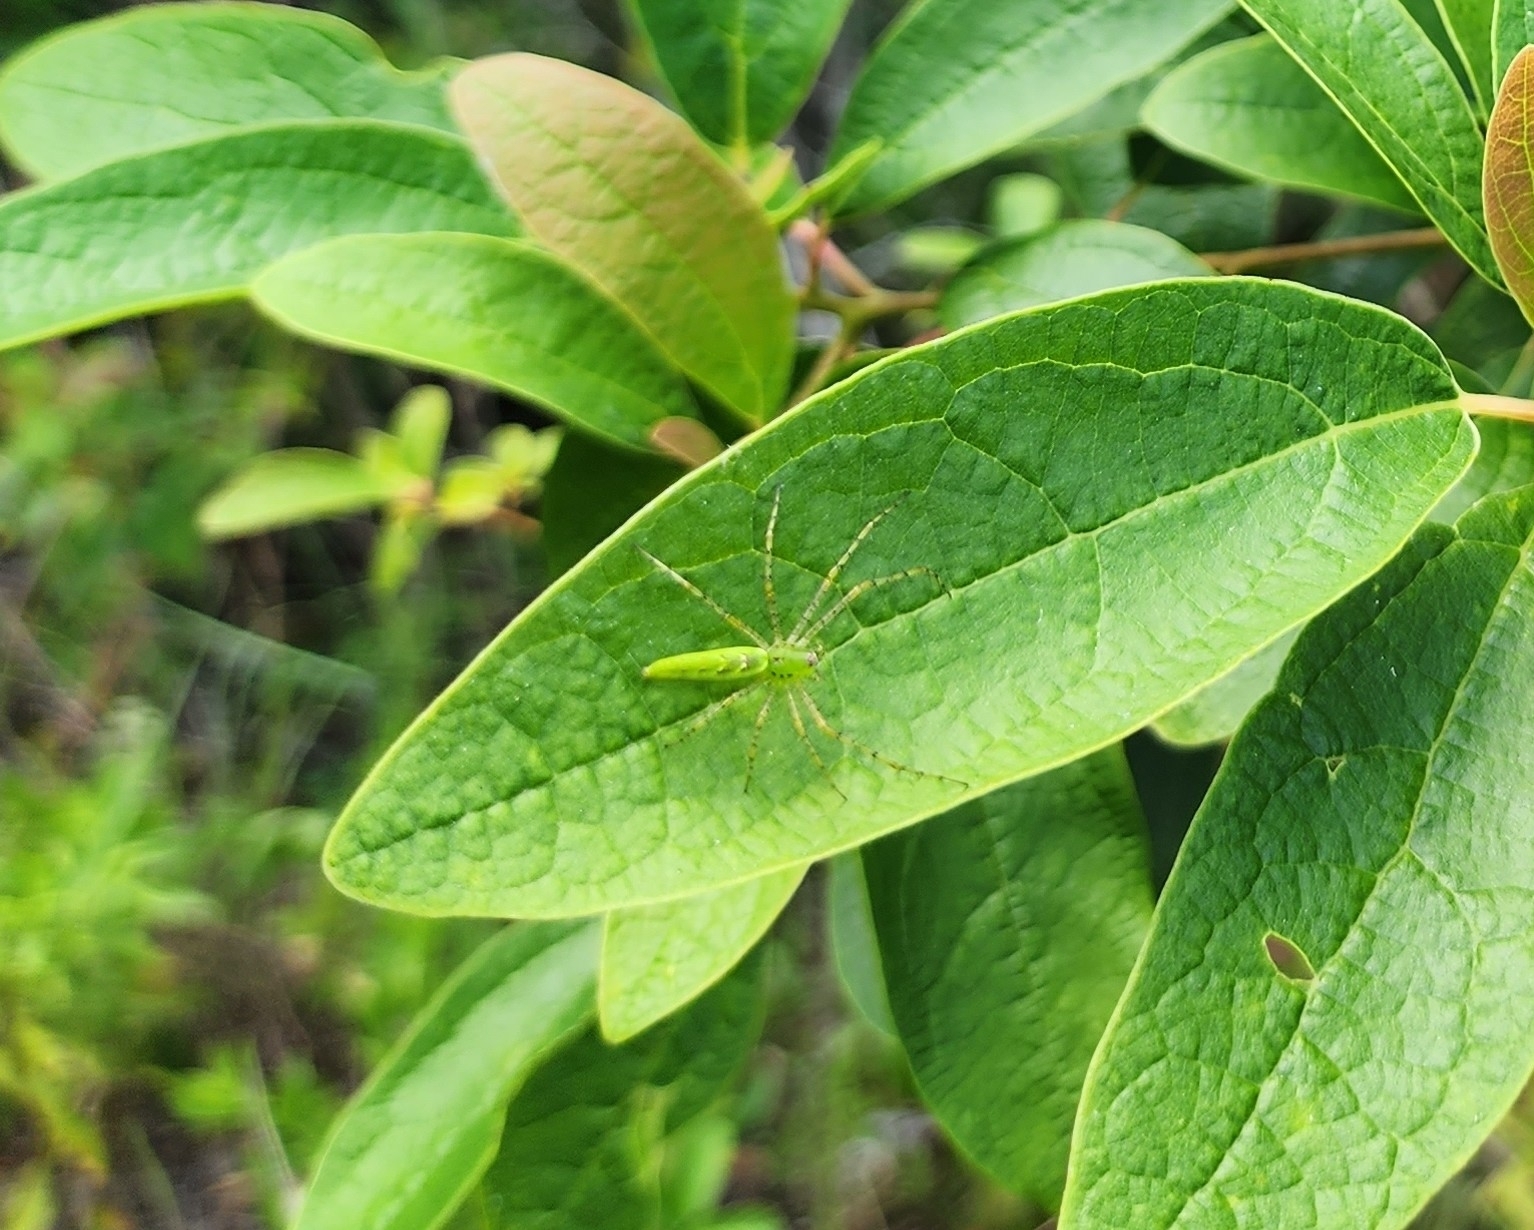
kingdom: Animalia
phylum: Arthropoda
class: Arachnida
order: Araneae
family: Oxyopidae
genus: Peucetia
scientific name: Peucetia viridans
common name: Lynx spiders
